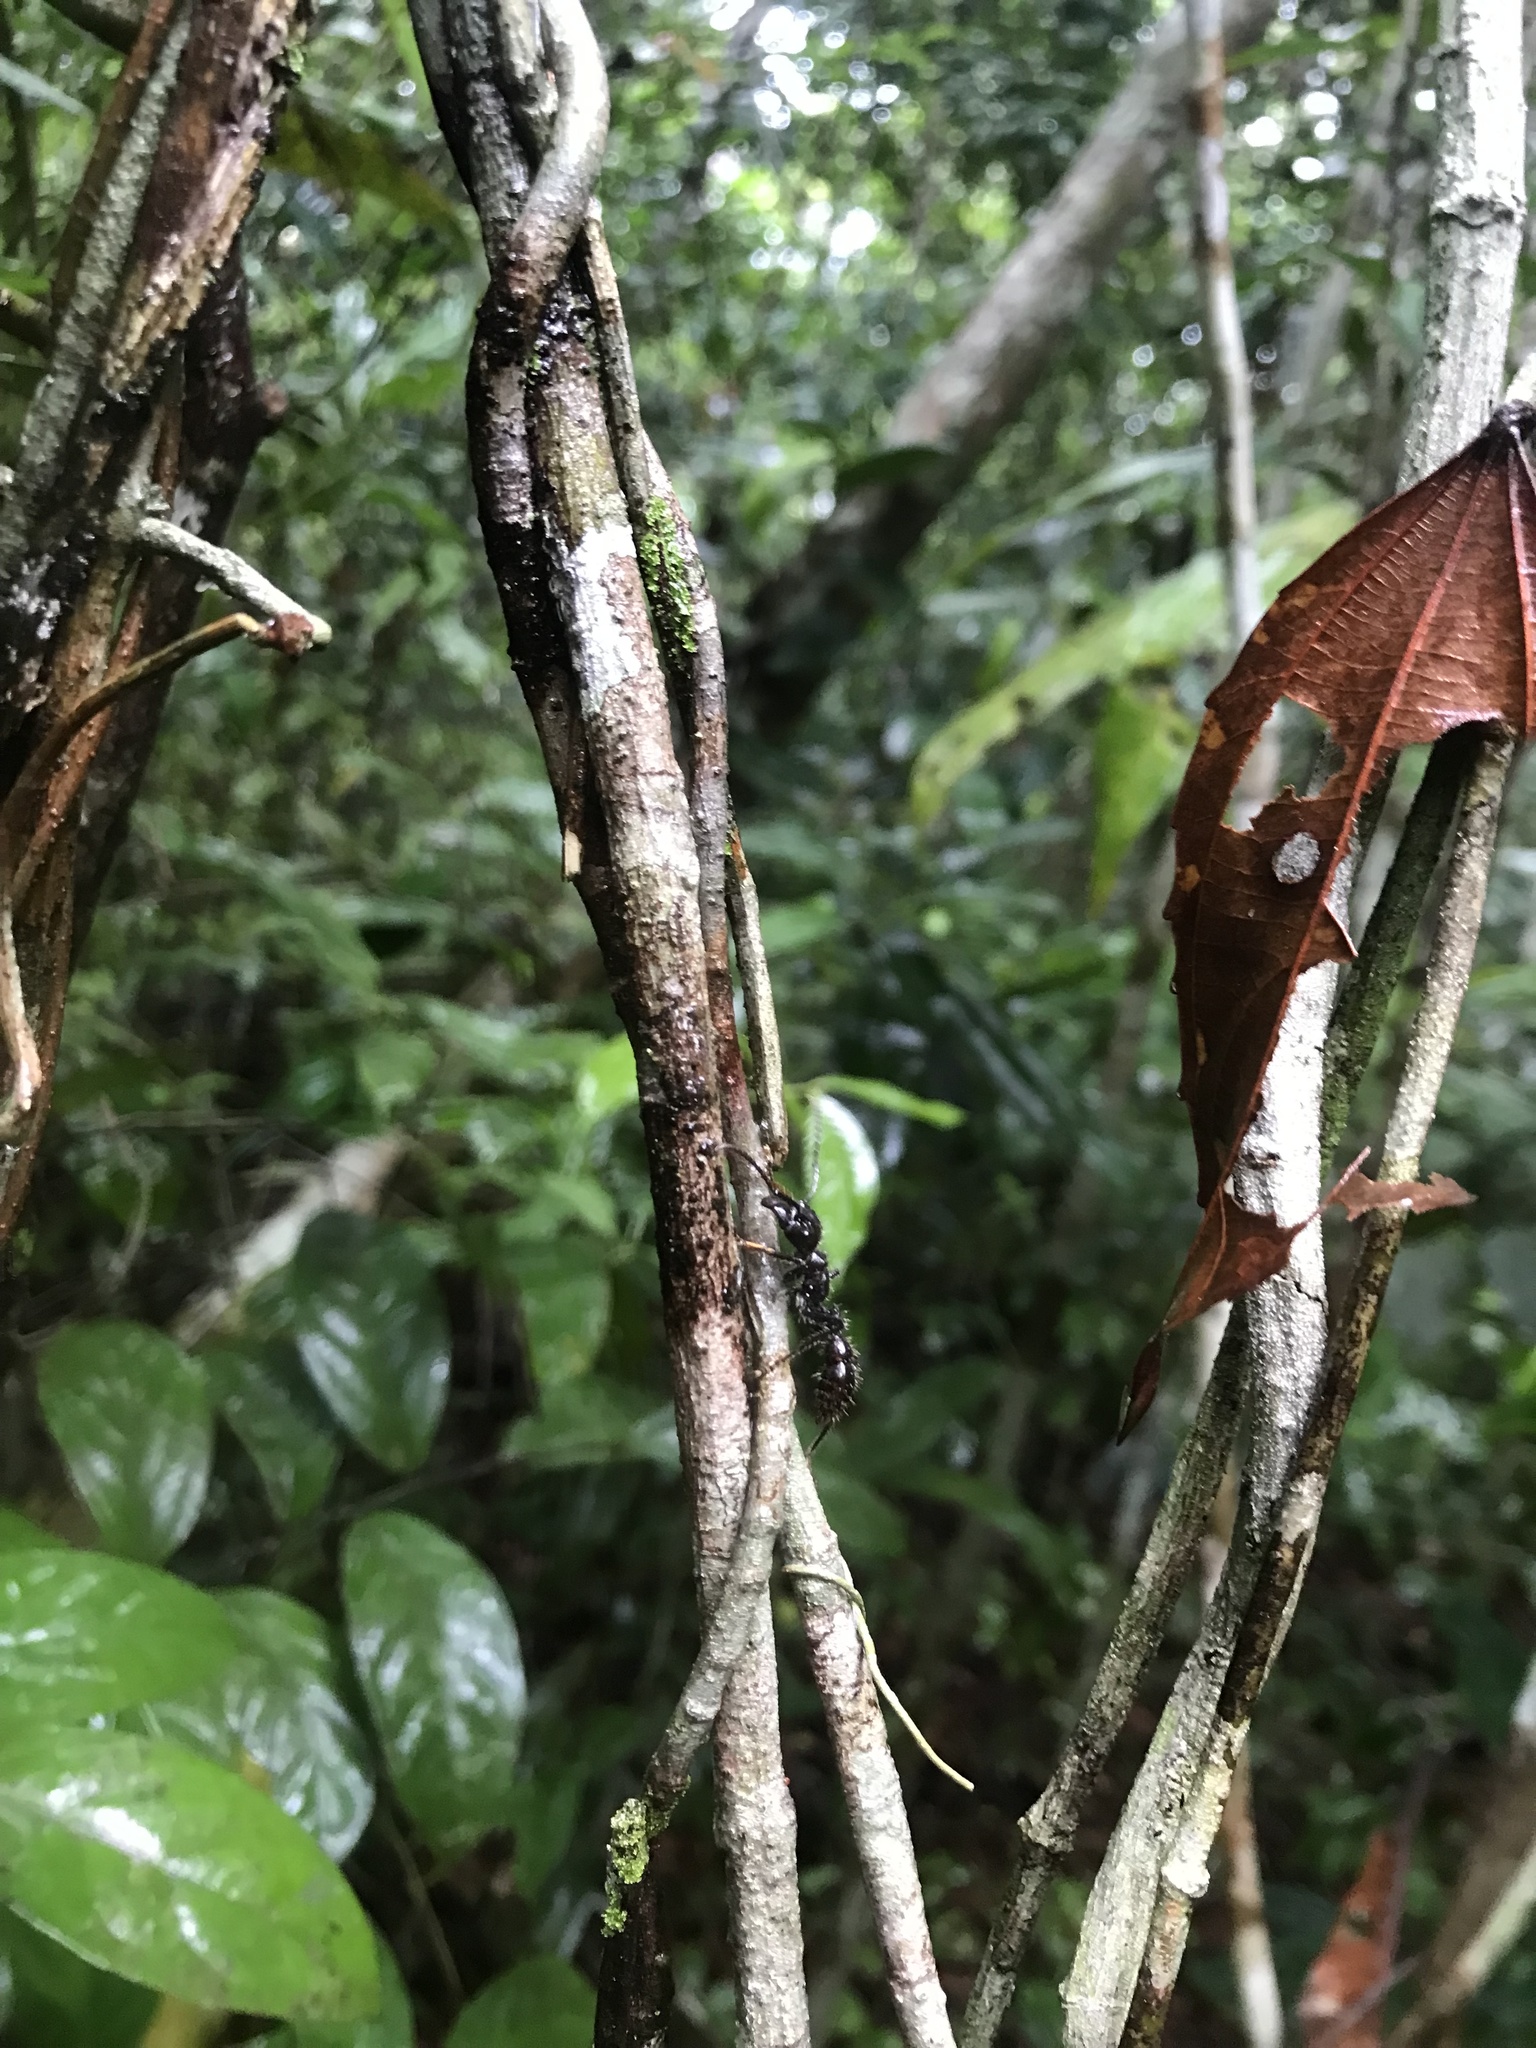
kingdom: Animalia
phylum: Arthropoda
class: Insecta
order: Hymenoptera
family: Formicidae
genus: Paraponera
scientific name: Paraponera clavata
